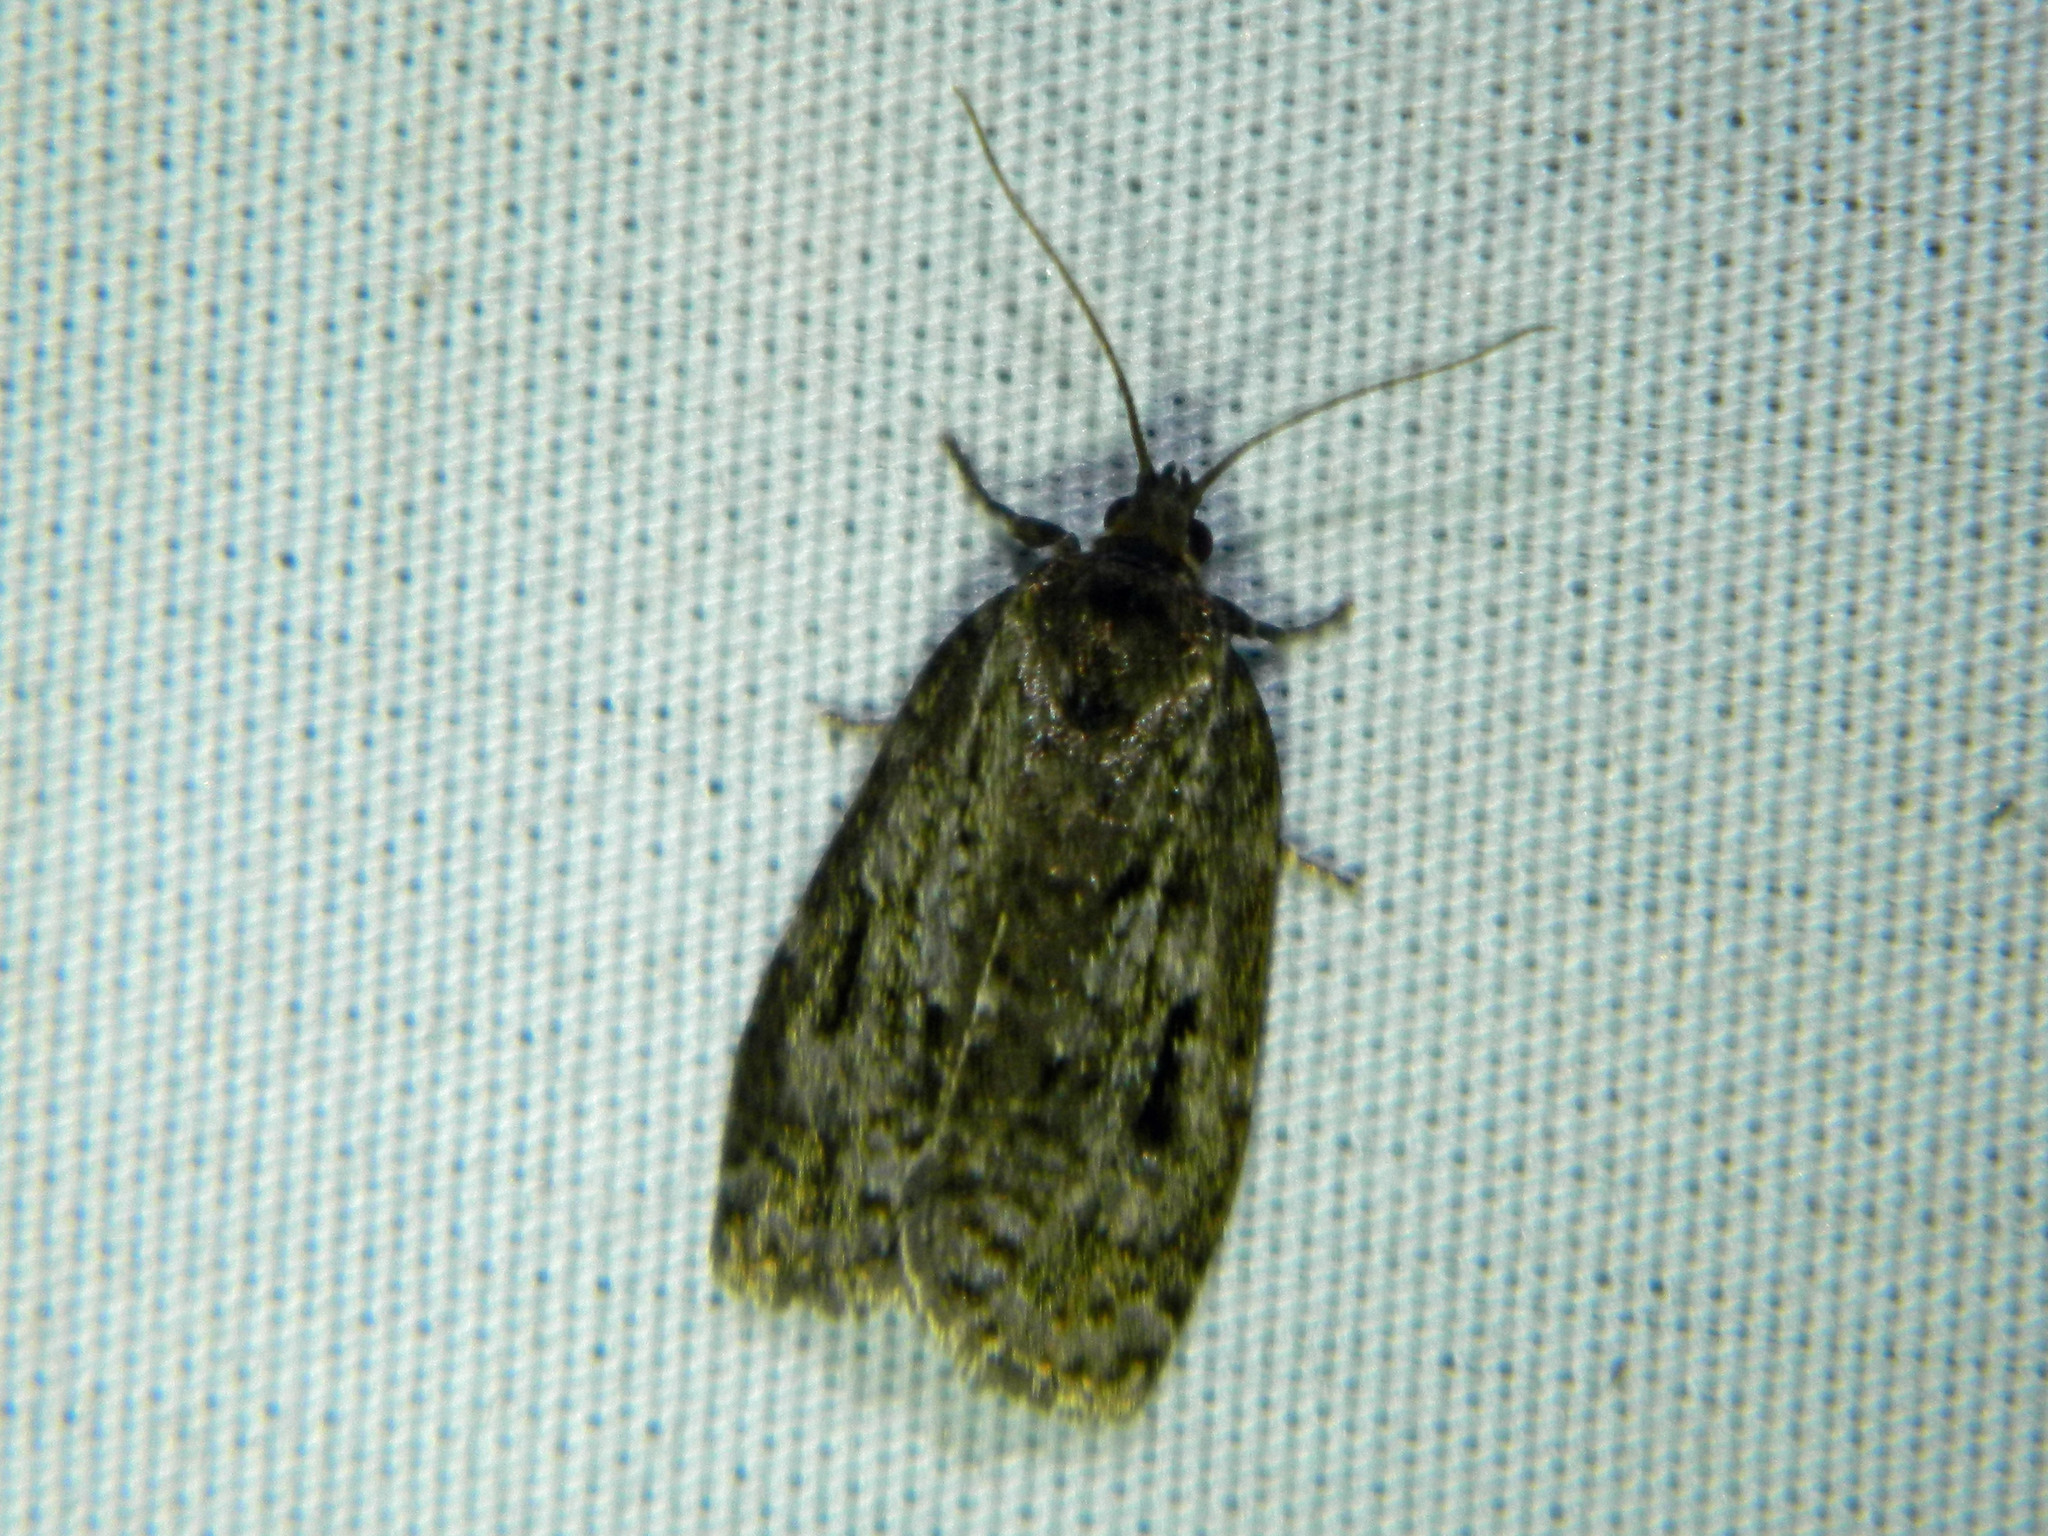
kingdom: Animalia
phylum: Arthropoda
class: Insecta
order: Lepidoptera
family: Tortricidae
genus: Choristoneura
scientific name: Choristoneura fumiferana
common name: Spruce budworm
